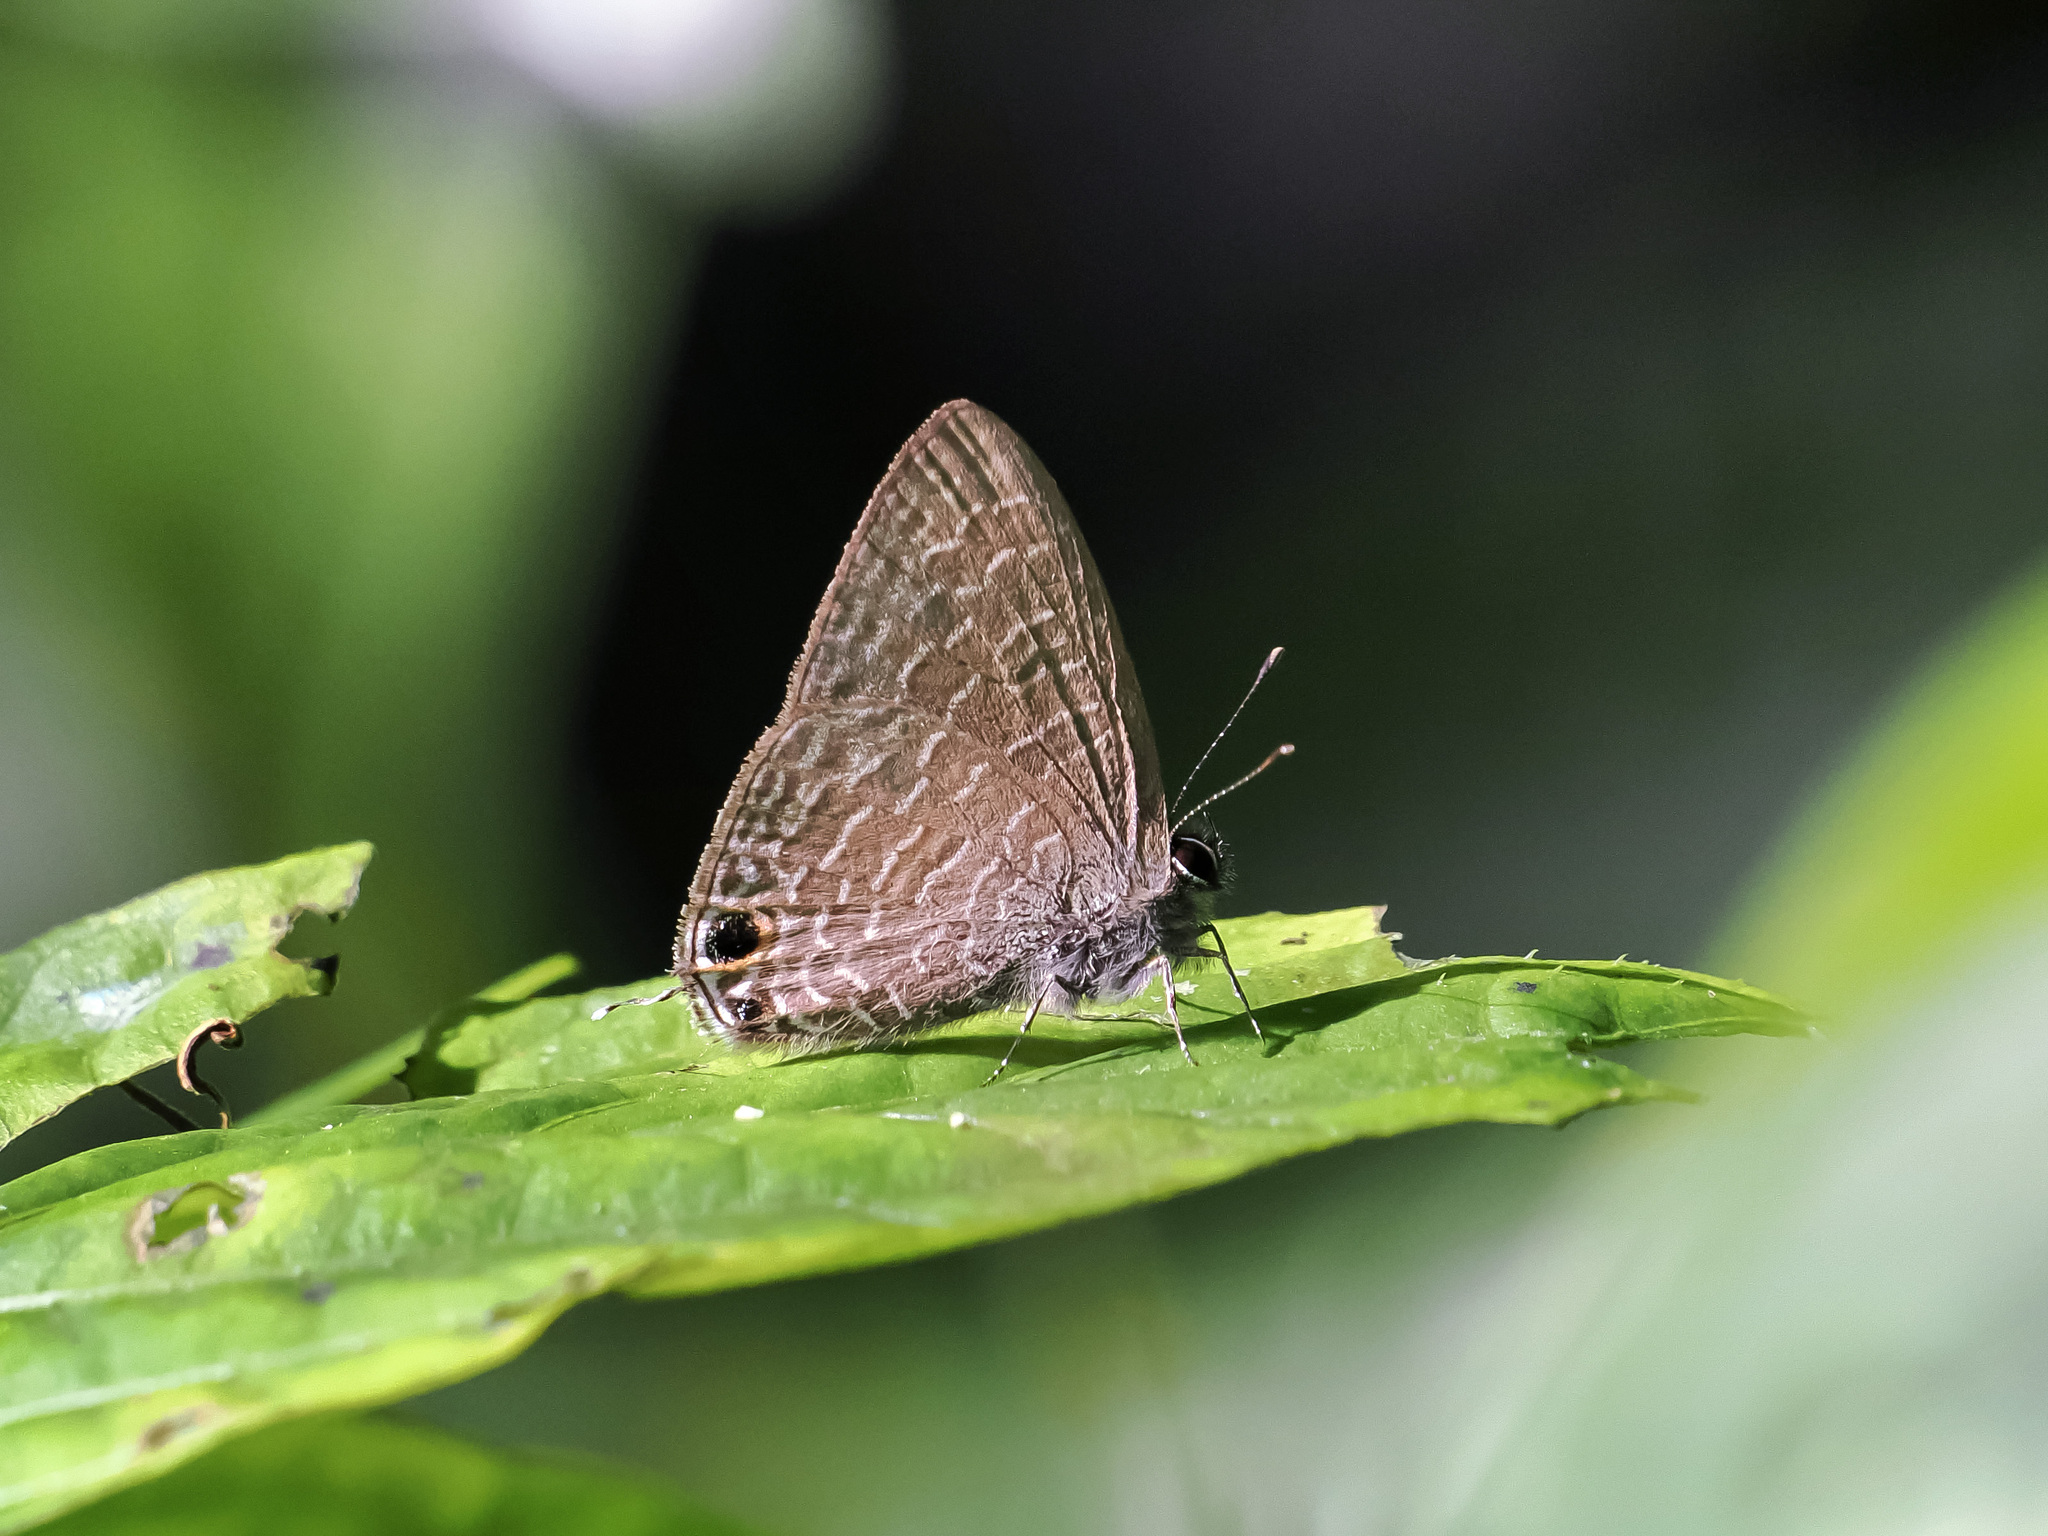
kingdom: Animalia
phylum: Arthropoda
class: Insecta
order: Lepidoptera
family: Lycaenidae
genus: Ionolyce
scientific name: Ionolyce helicon
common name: Pointed line blue
